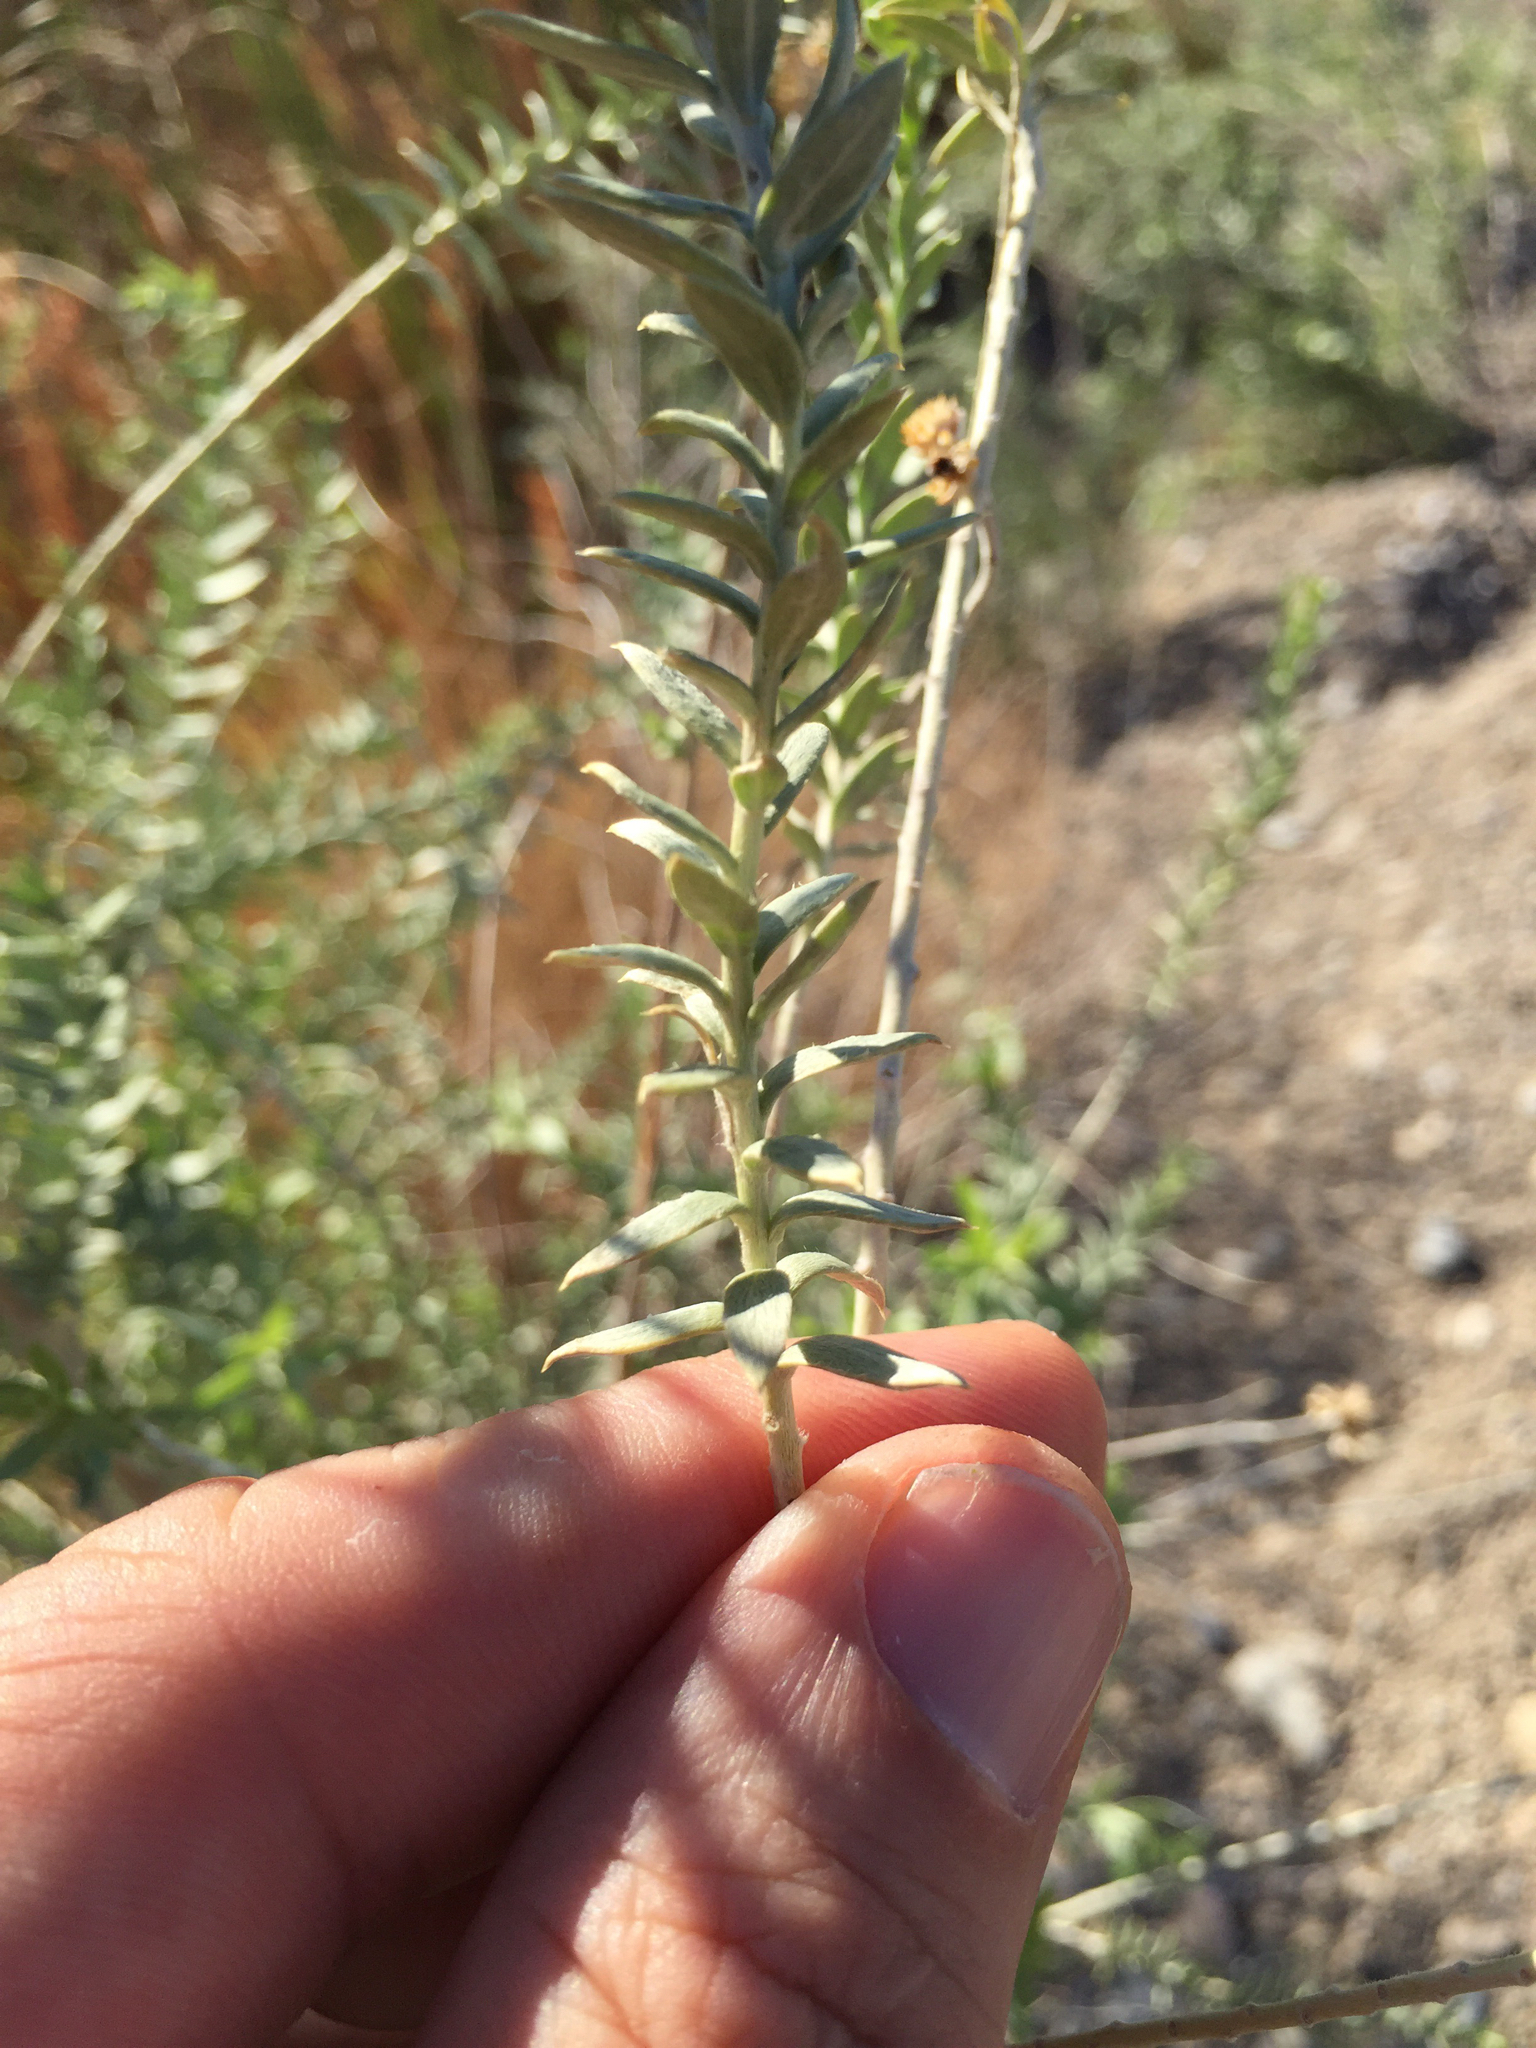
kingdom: Plantae
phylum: Tracheophyta
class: Magnoliopsida
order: Asterales
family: Asteraceae
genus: Pluchea
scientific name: Pluchea sericea
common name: Arrow-weed
